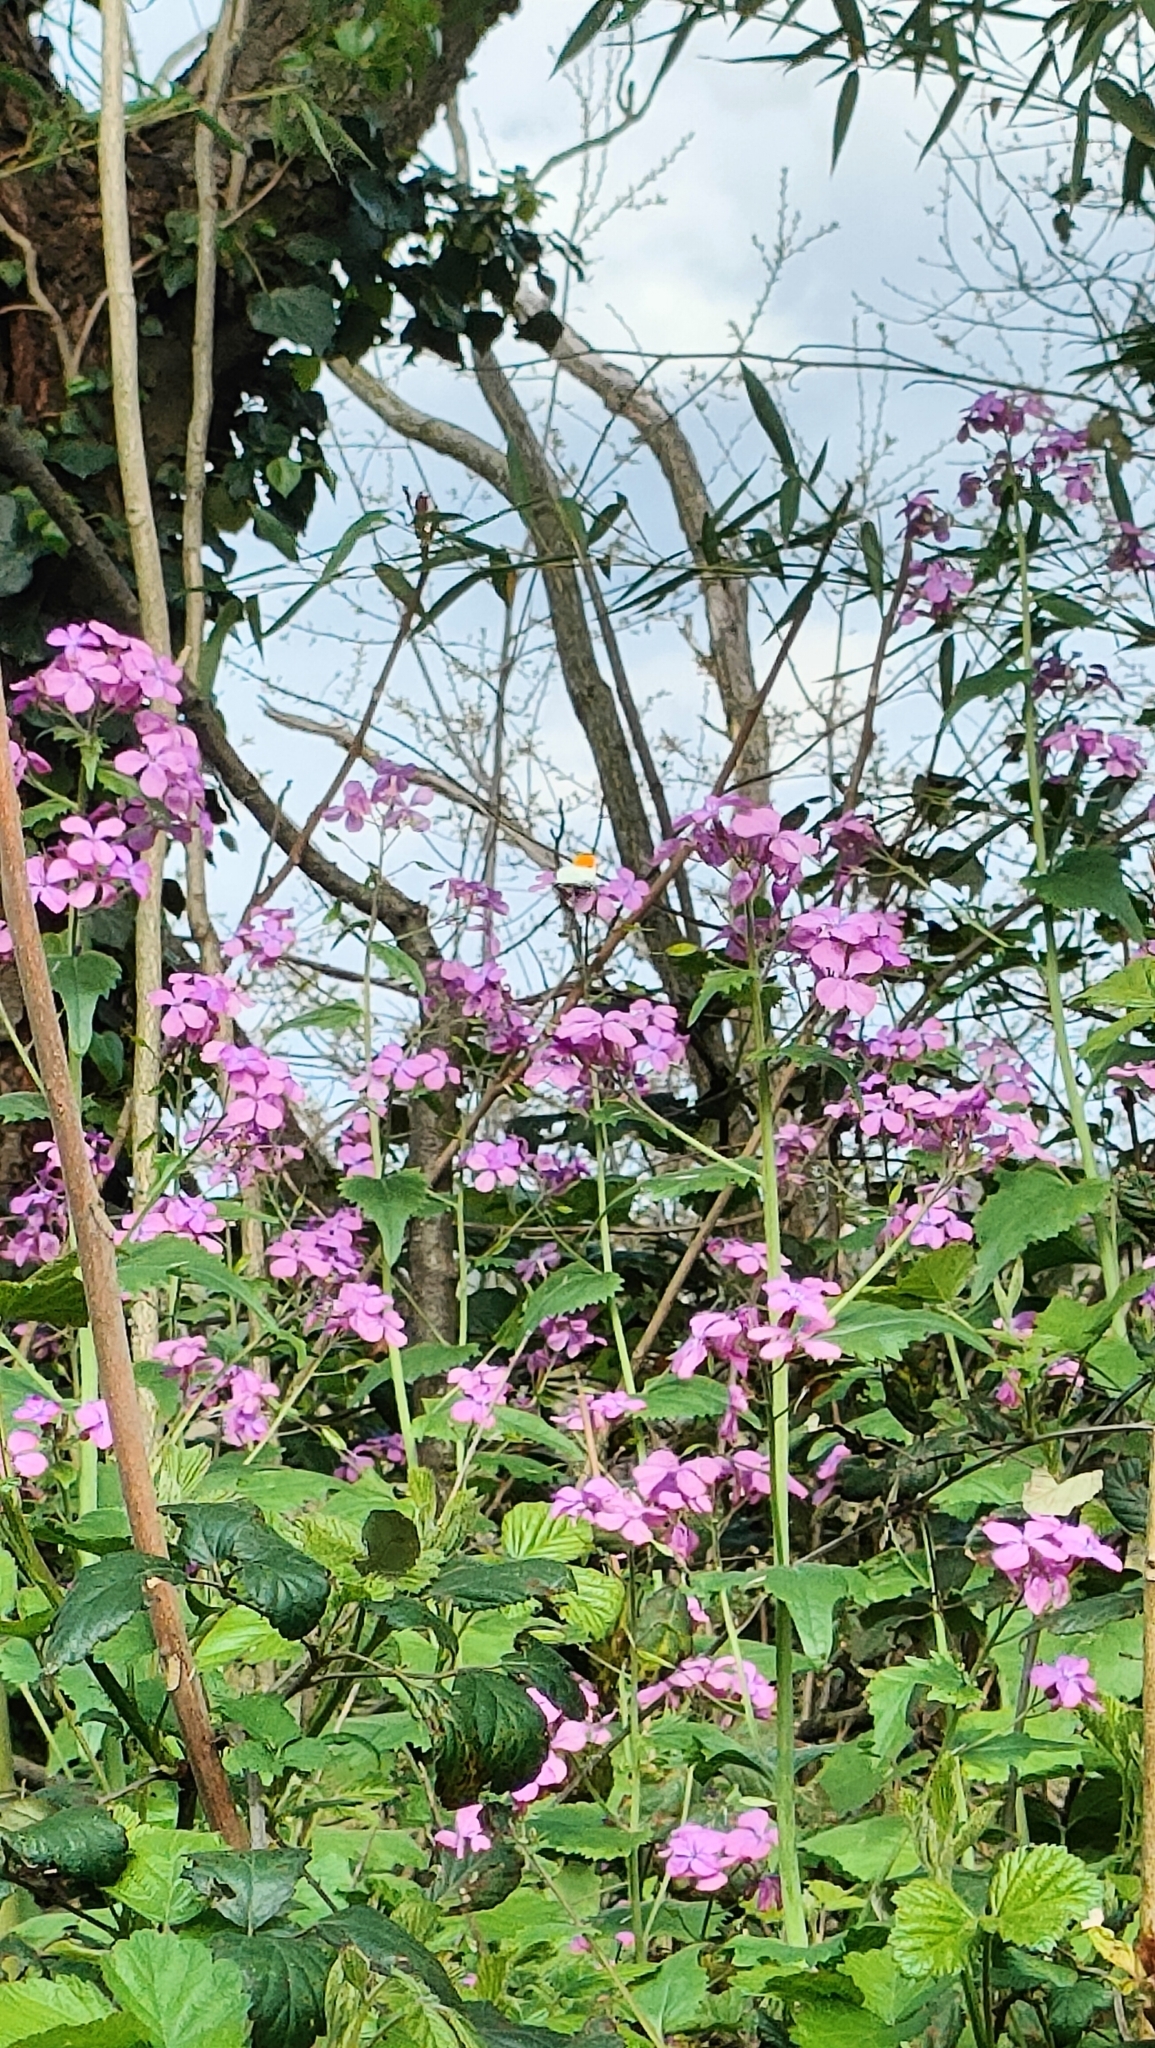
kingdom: Animalia
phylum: Arthropoda
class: Insecta
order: Lepidoptera
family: Pieridae
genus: Anthocharis
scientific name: Anthocharis cardamines
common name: Orange-tip
